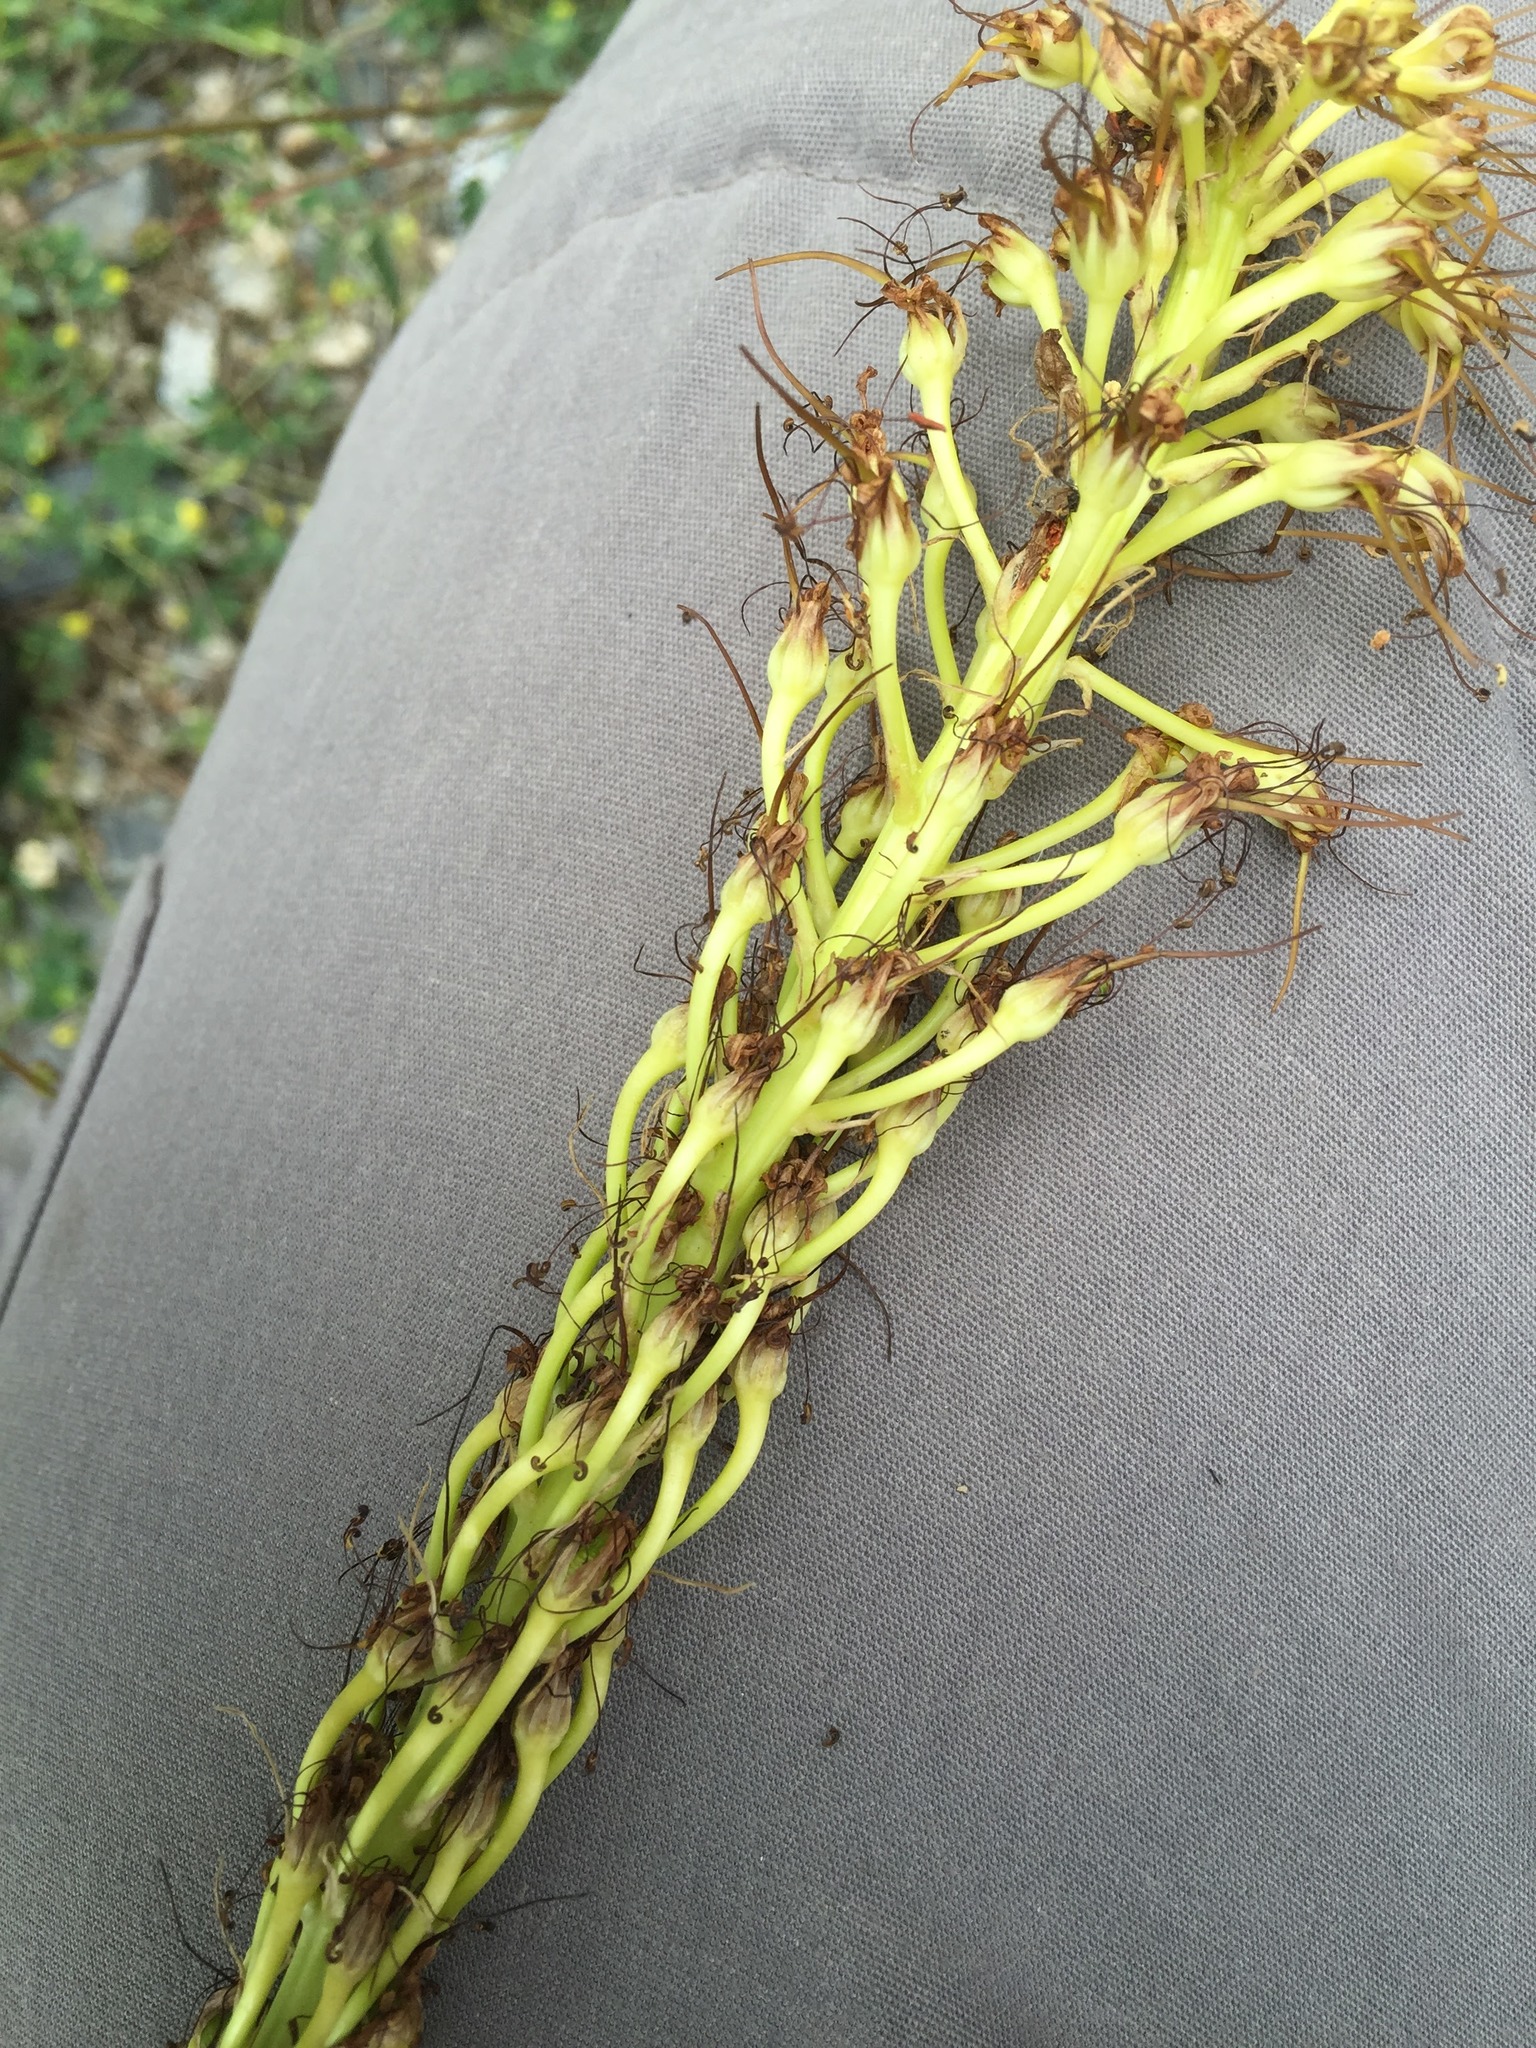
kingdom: Plantae
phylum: Tracheophyta
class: Liliopsida
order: Asparagales
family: Asphodelaceae
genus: Eremurus
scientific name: Eremurus spectabilis
